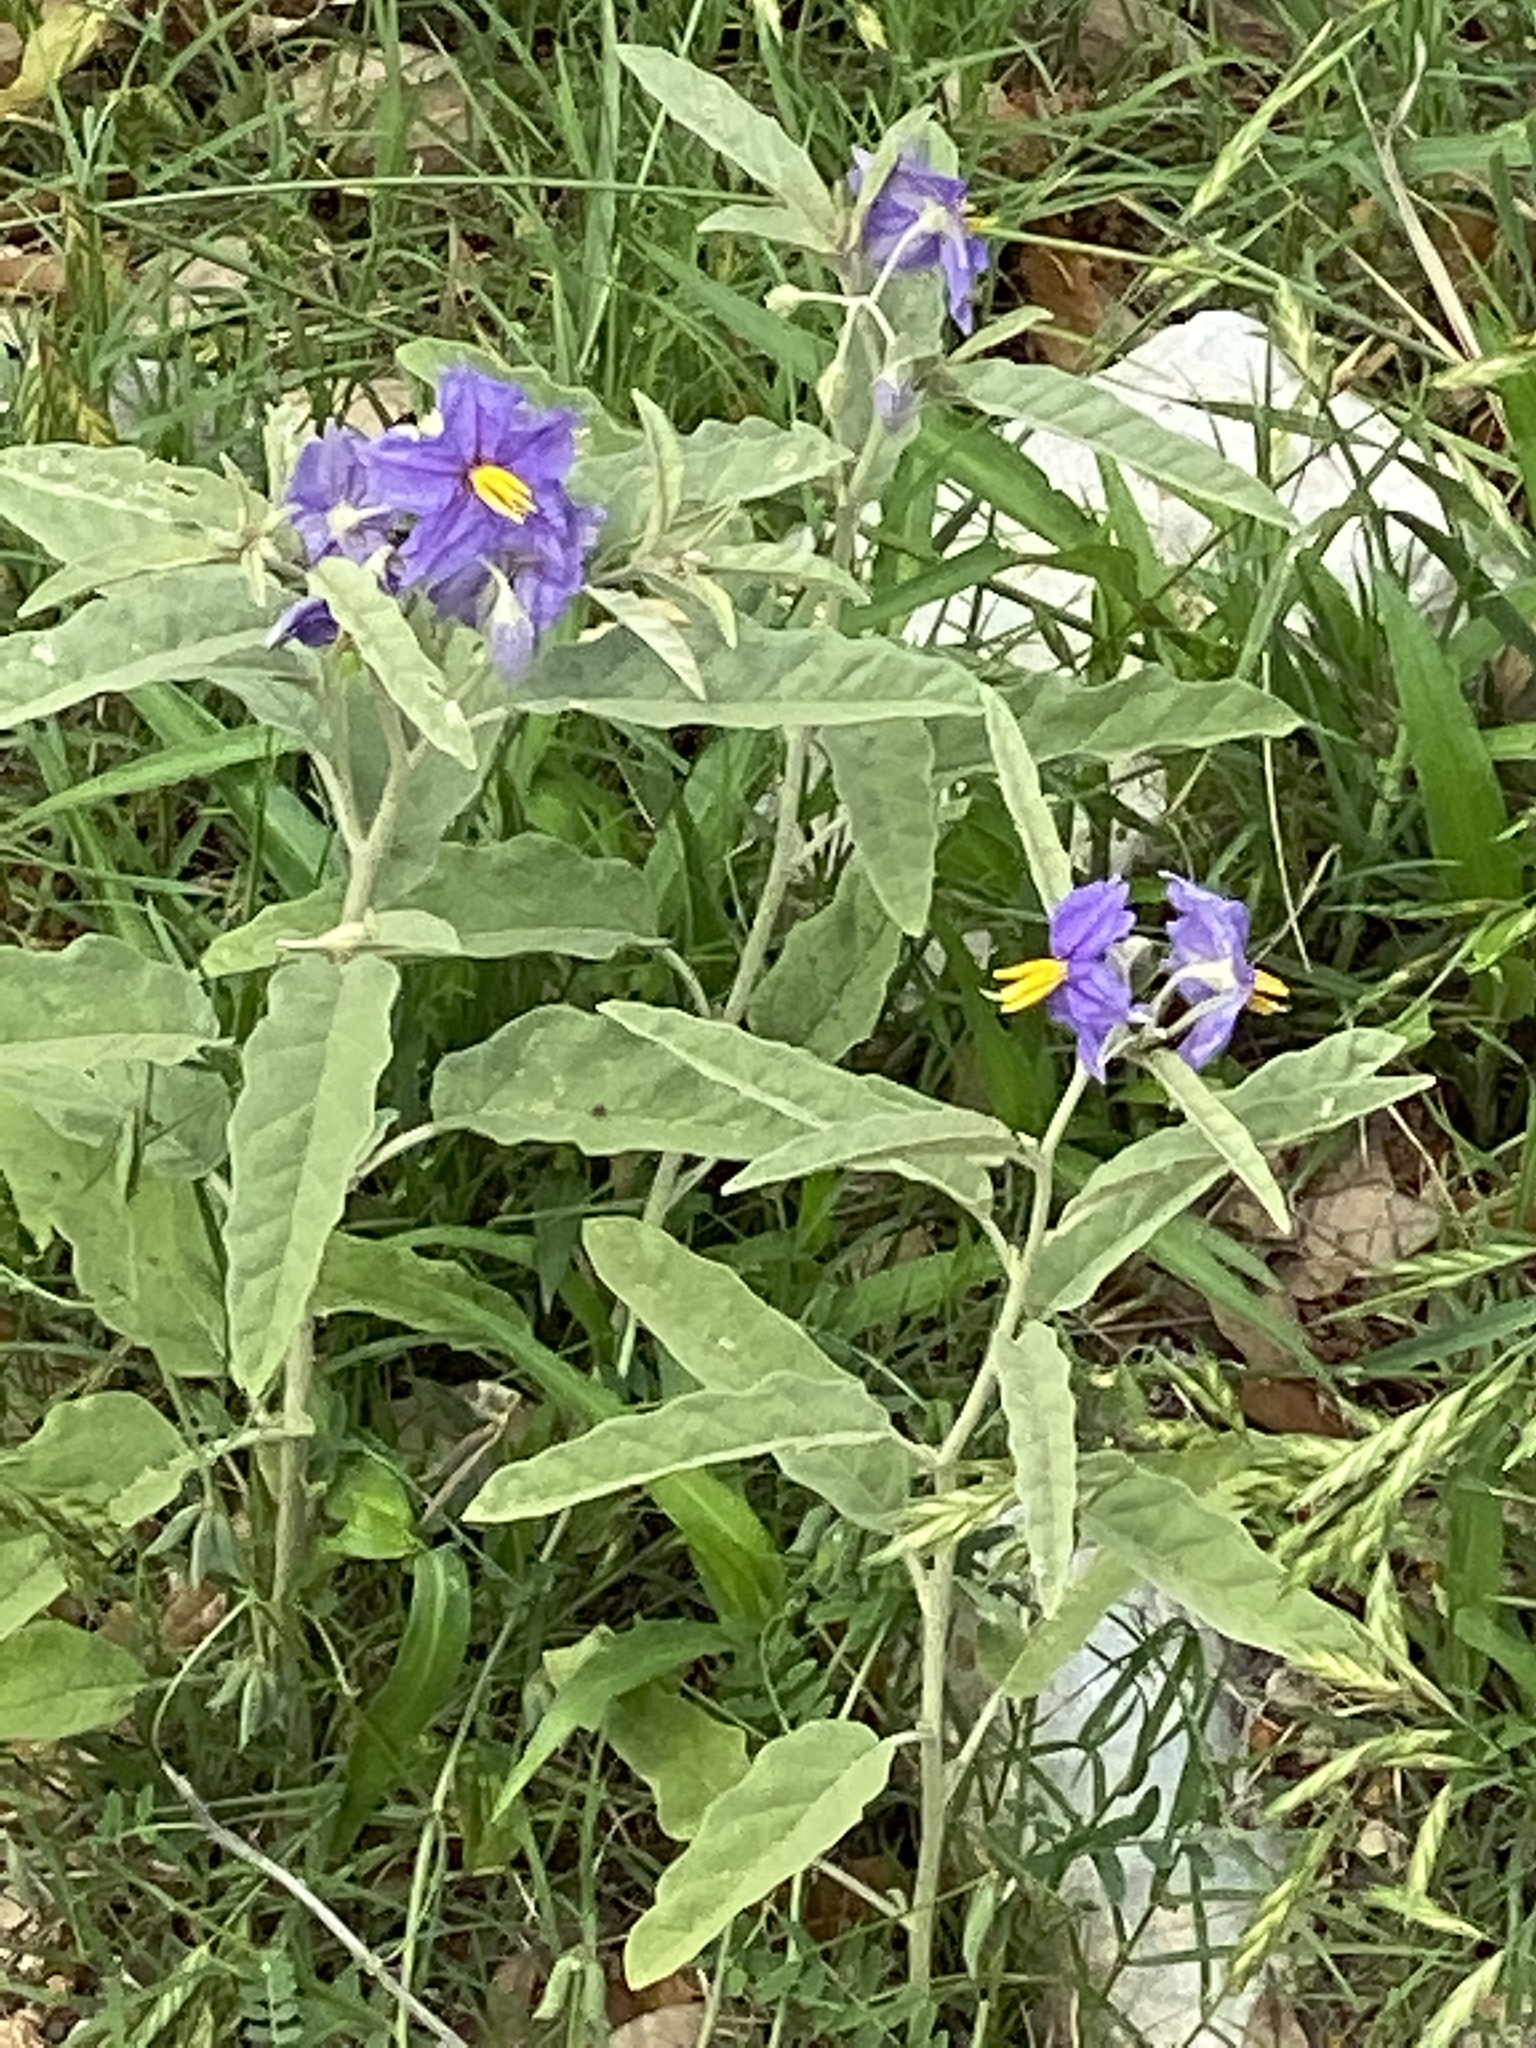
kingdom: Plantae
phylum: Tracheophyta
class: Magnoliopsida
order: Solanales
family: Solanaceae
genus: Solanum
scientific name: Solanum elaeagnifolium
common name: Silverleaf nightshade
